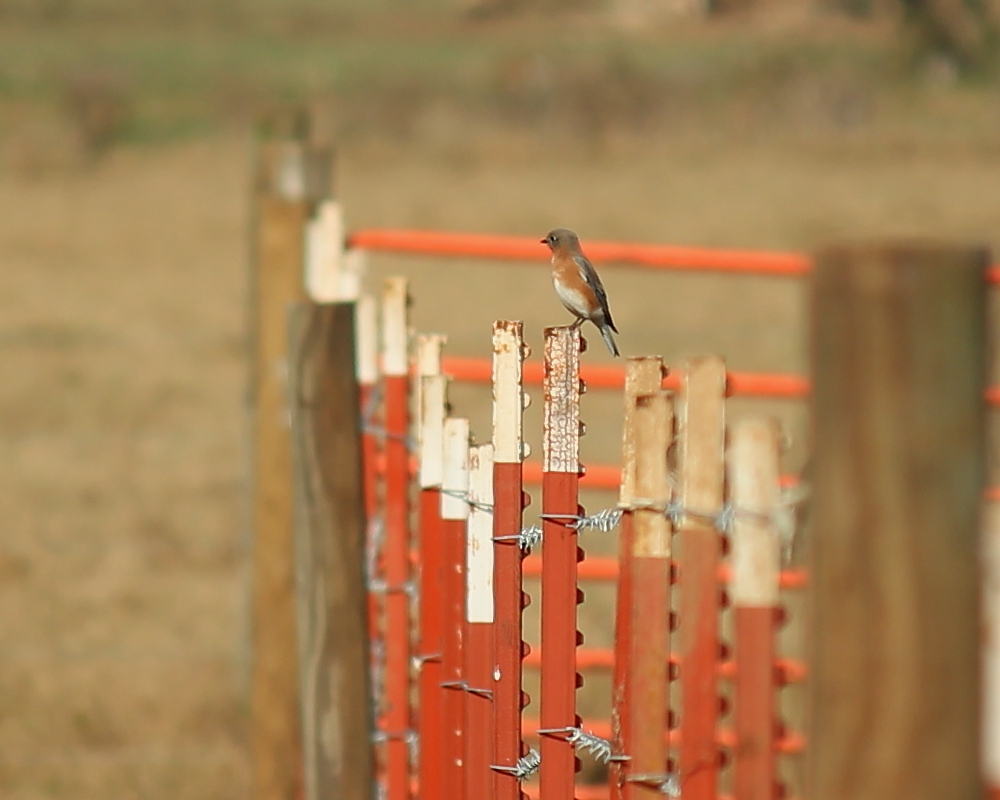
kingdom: Animalia
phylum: Chordata
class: Aves
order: Passeriformes
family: Turdidae
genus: Sialia
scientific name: Sialia sialis
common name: Eastern bluebird
